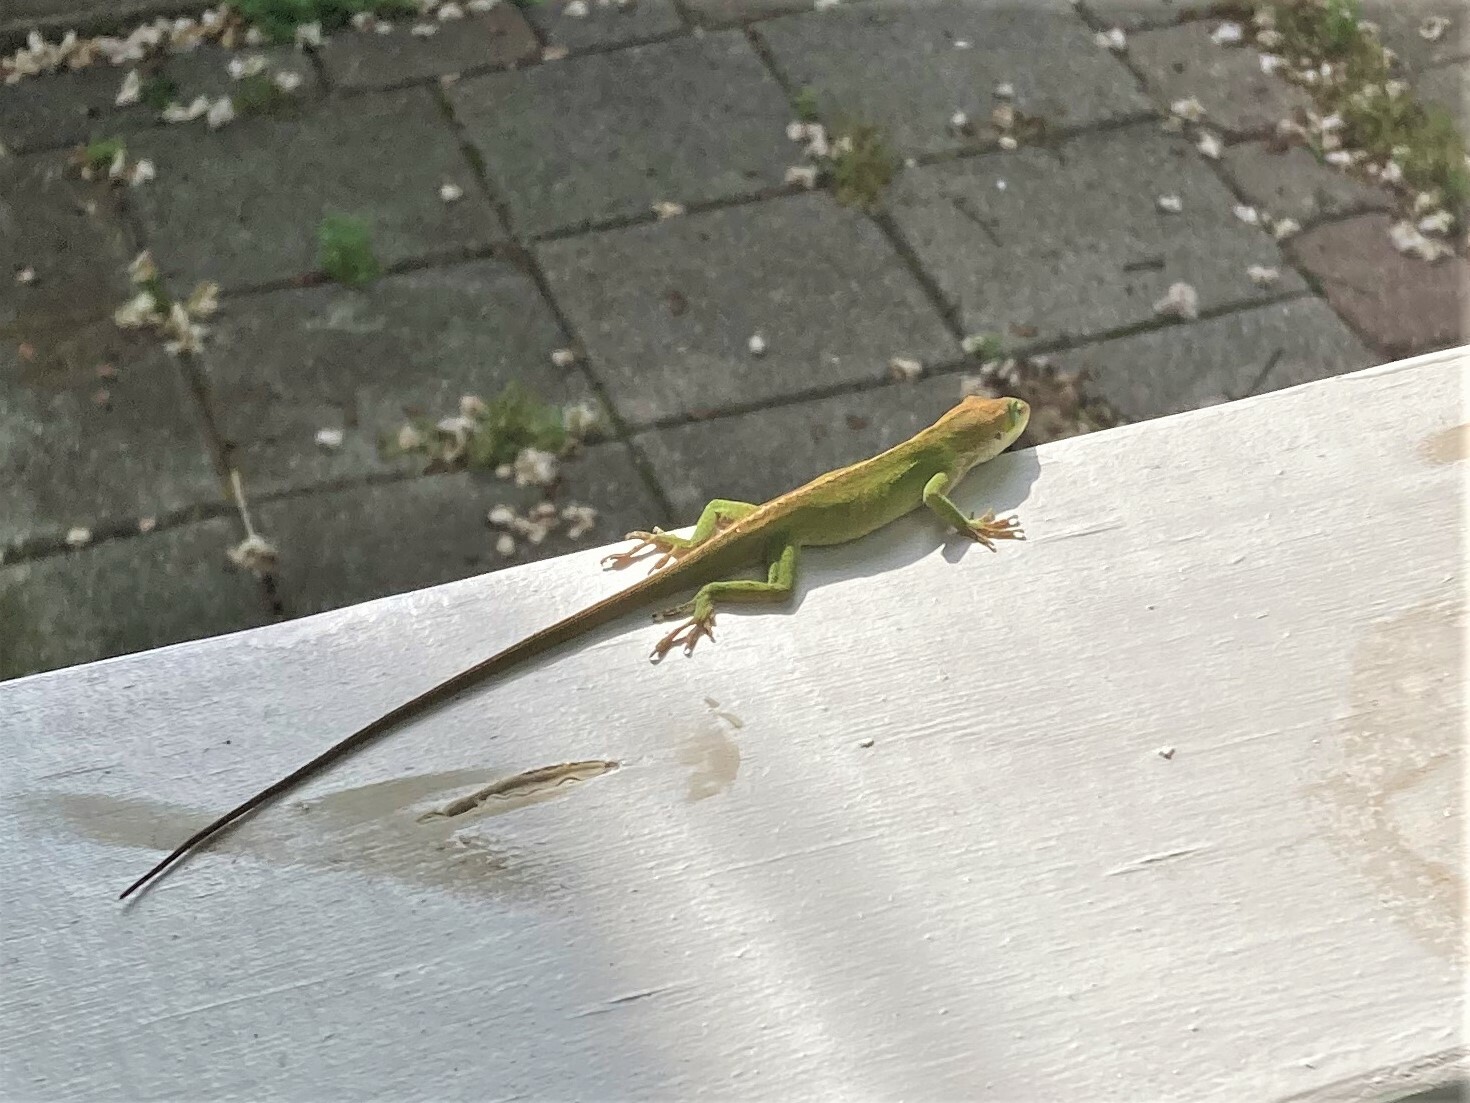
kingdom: Animalia
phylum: Chordata
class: Squamata
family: Dactyloidae
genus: Anolis
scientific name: Anolis carolinensis
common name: Green anole
